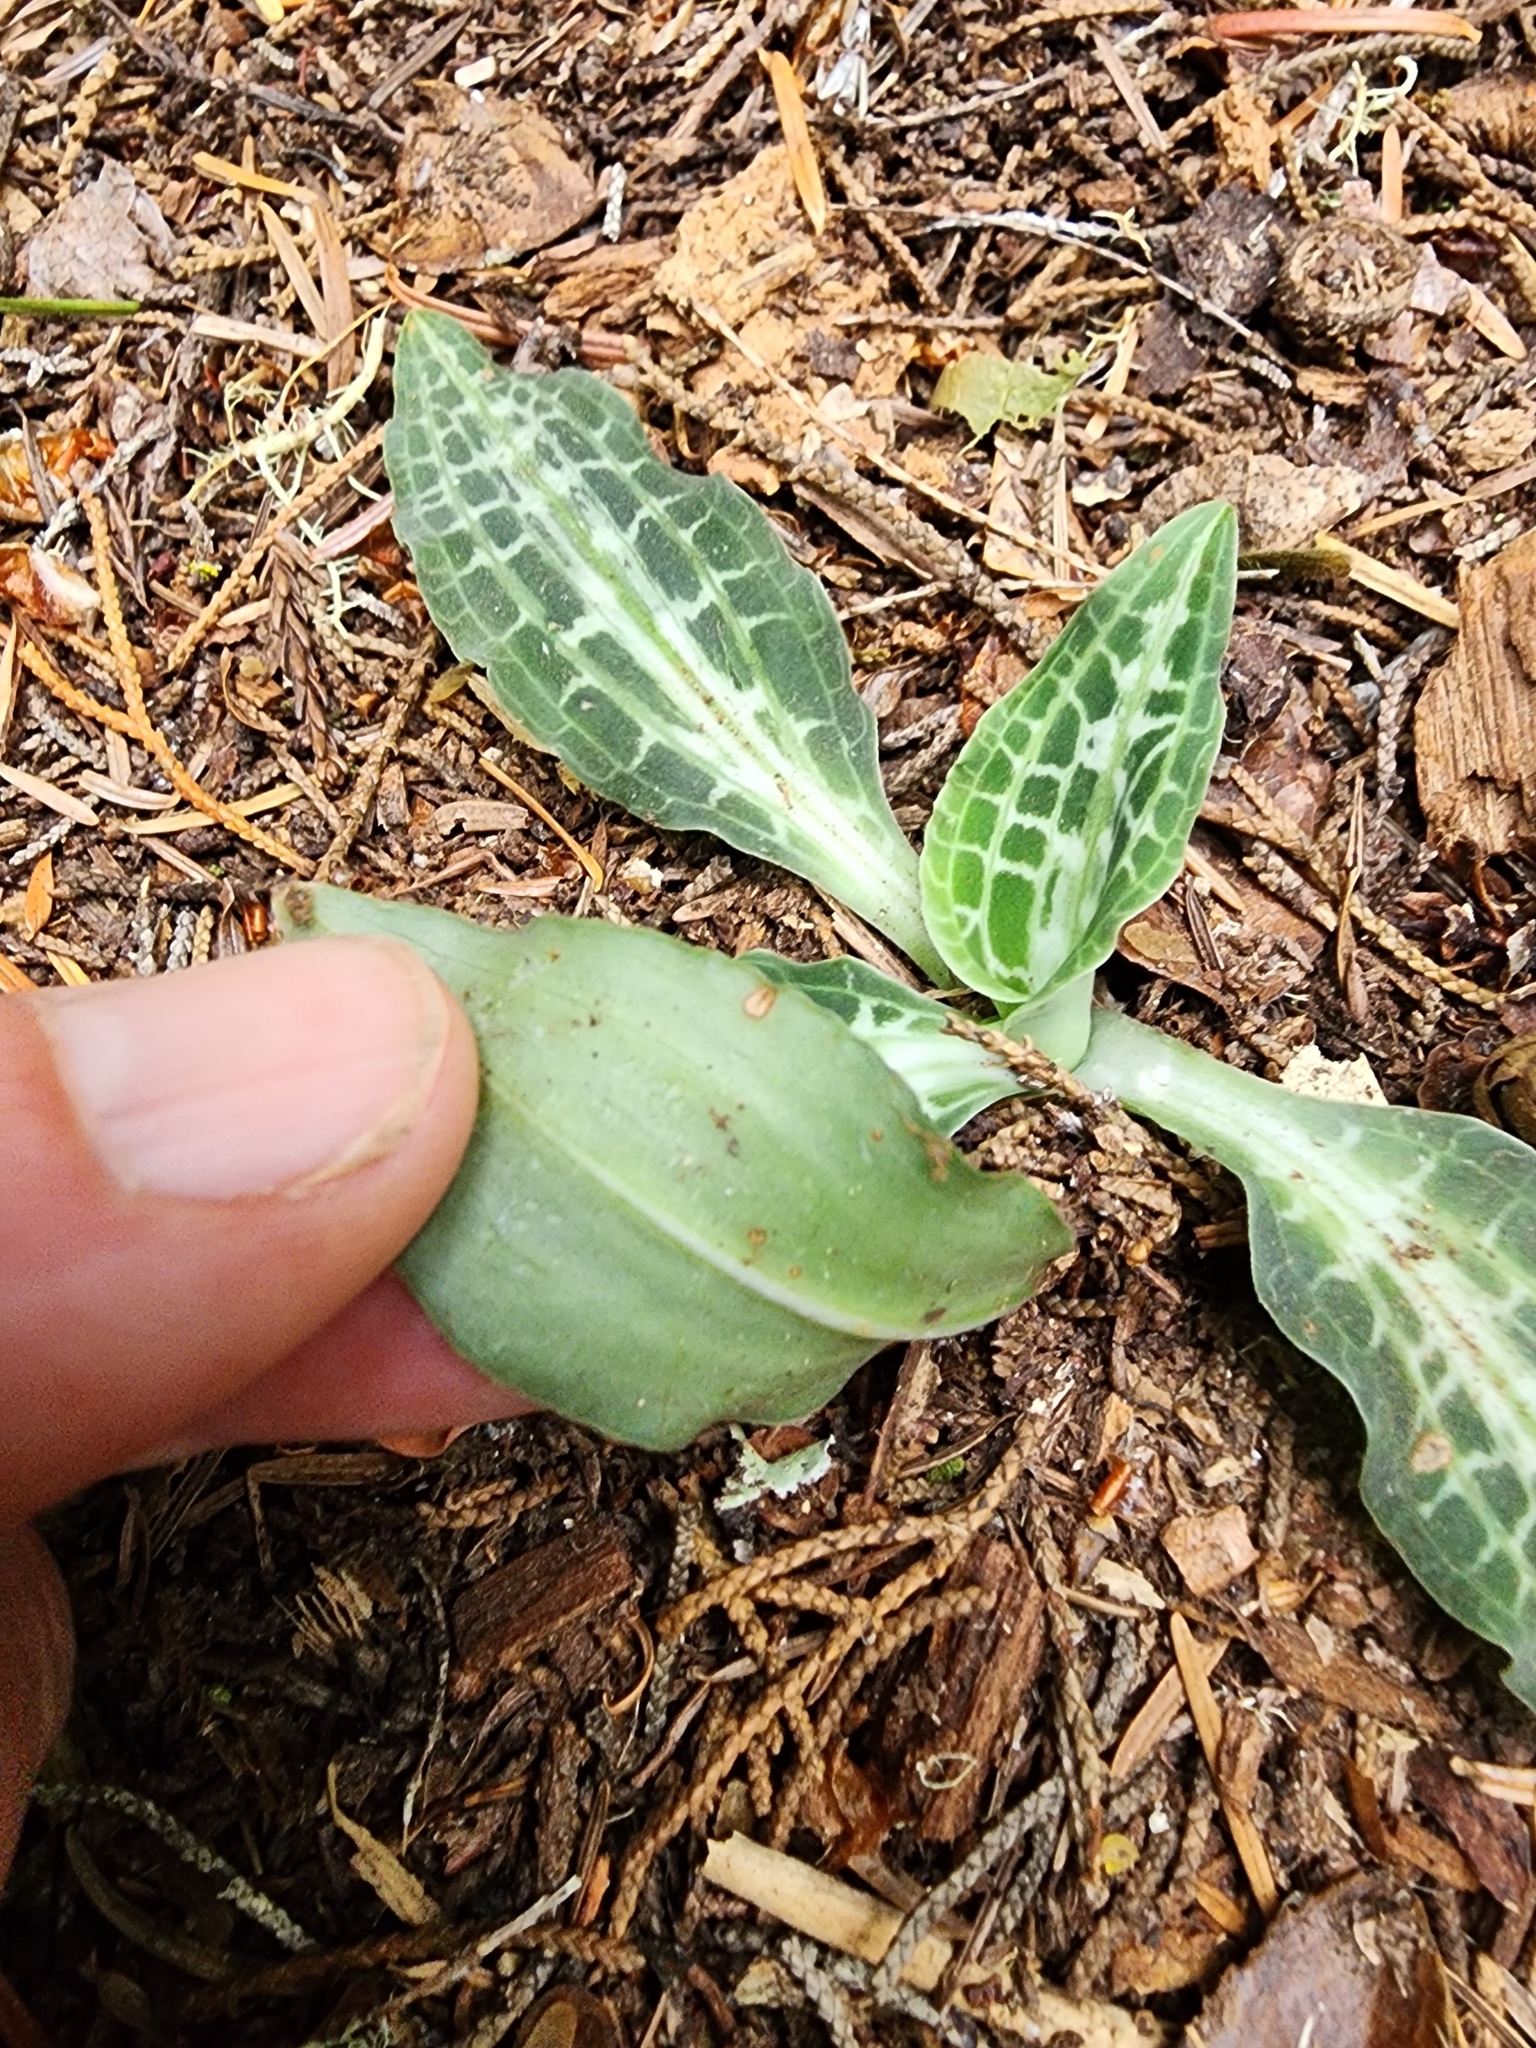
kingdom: Plantae
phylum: Tracheophyta
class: Liliopsida
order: Asparagales
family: Orchidaceae
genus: Goodyera
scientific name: Goodyera oblongifolia
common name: Giant rattlesnake-plantain
